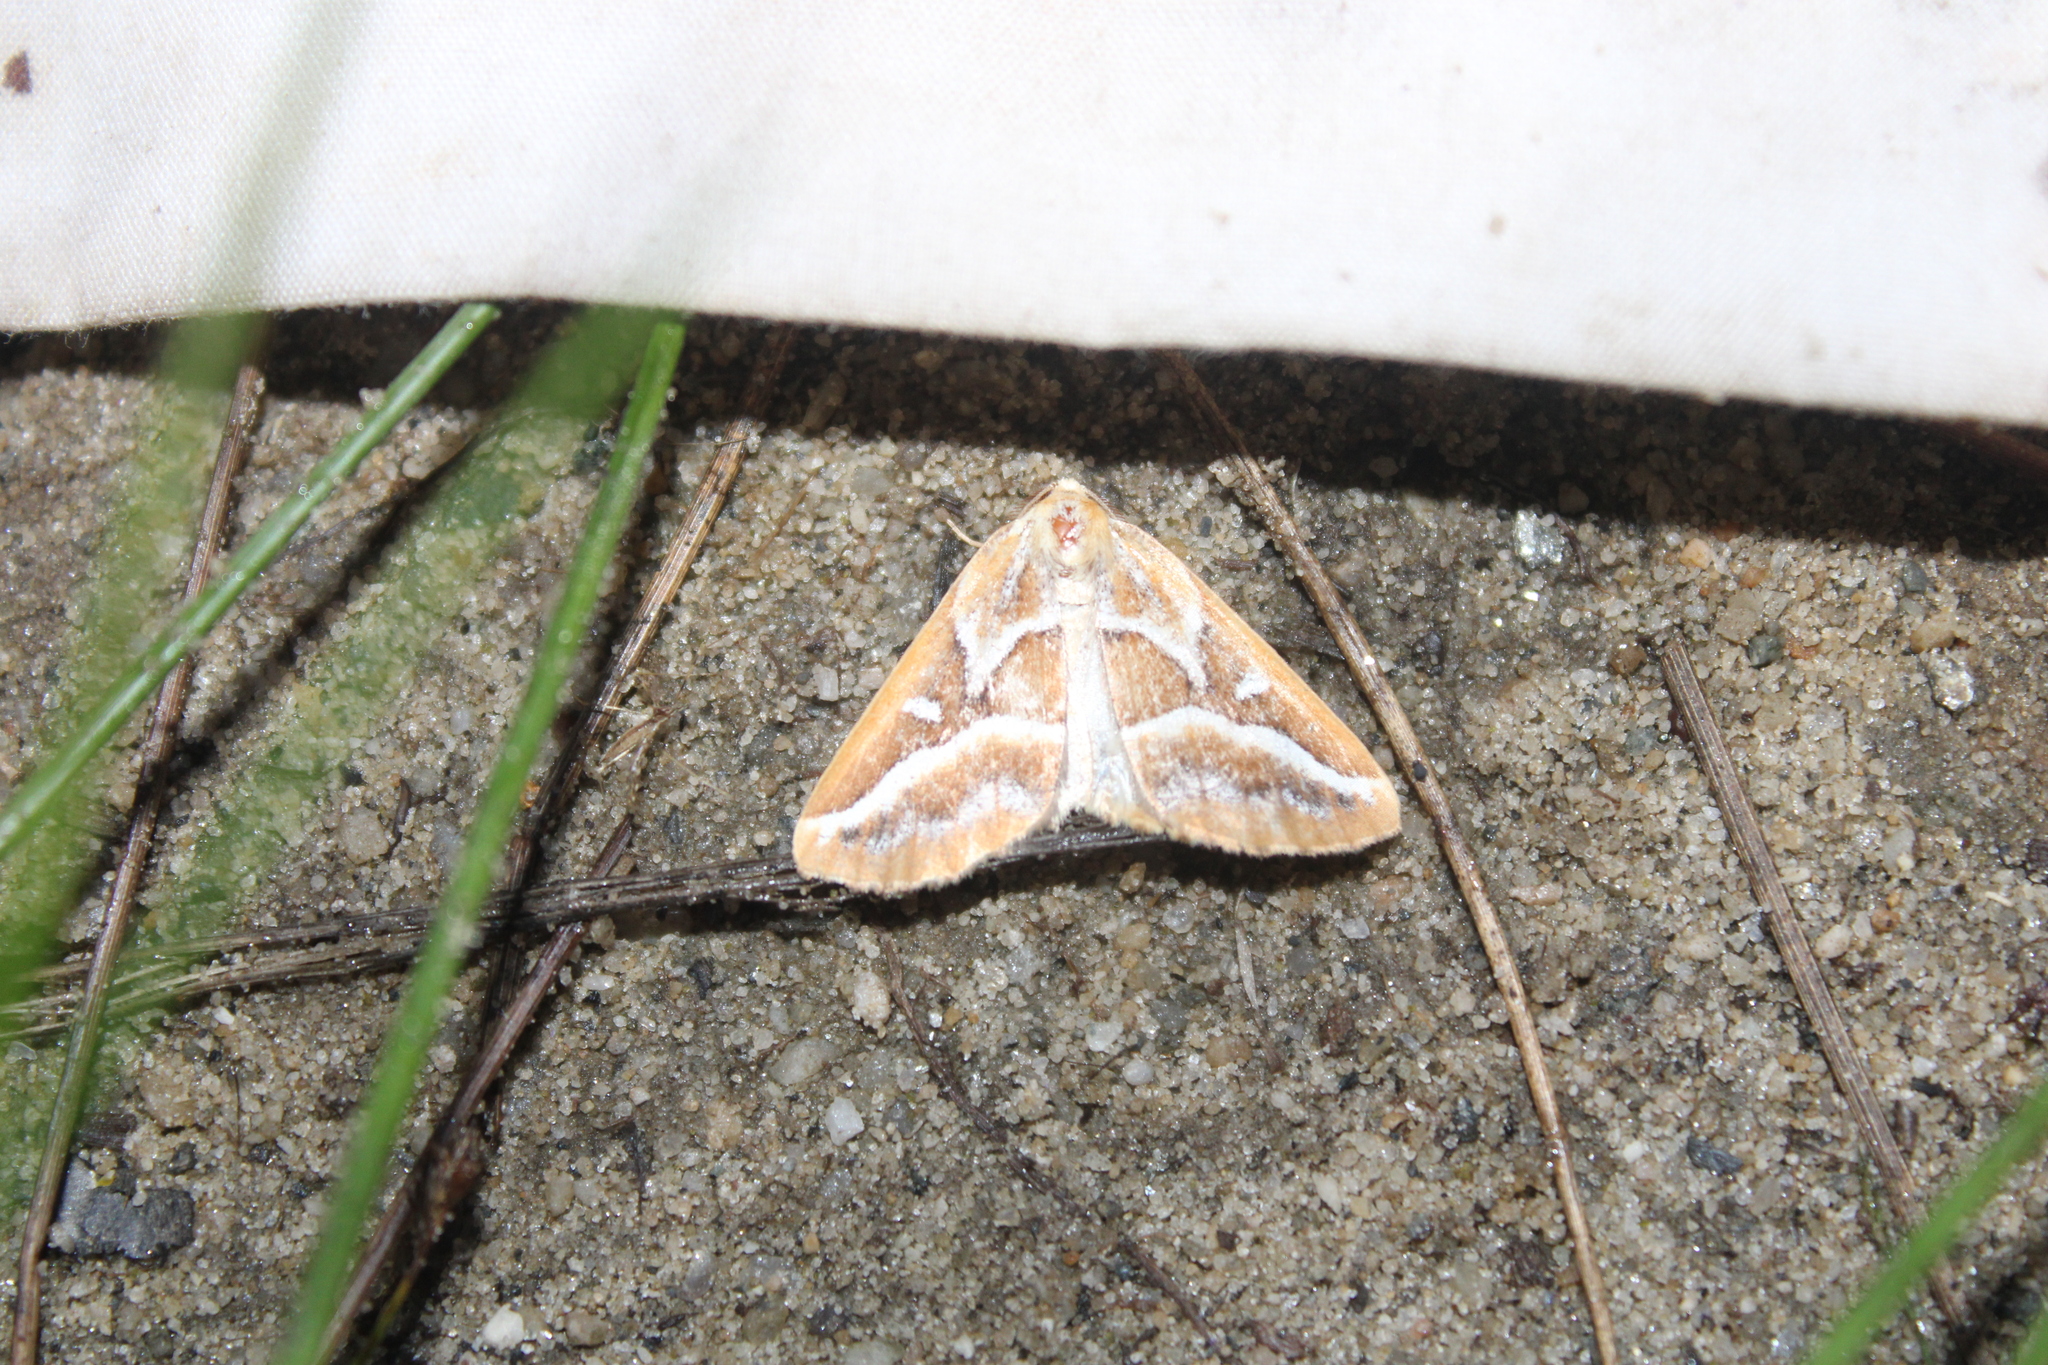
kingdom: Animalia
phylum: Arthropoda
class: Insecta
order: Lepidoptera
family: Geometridae
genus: Caripeta
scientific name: Caripeta angustiorata
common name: Brown pine looper
